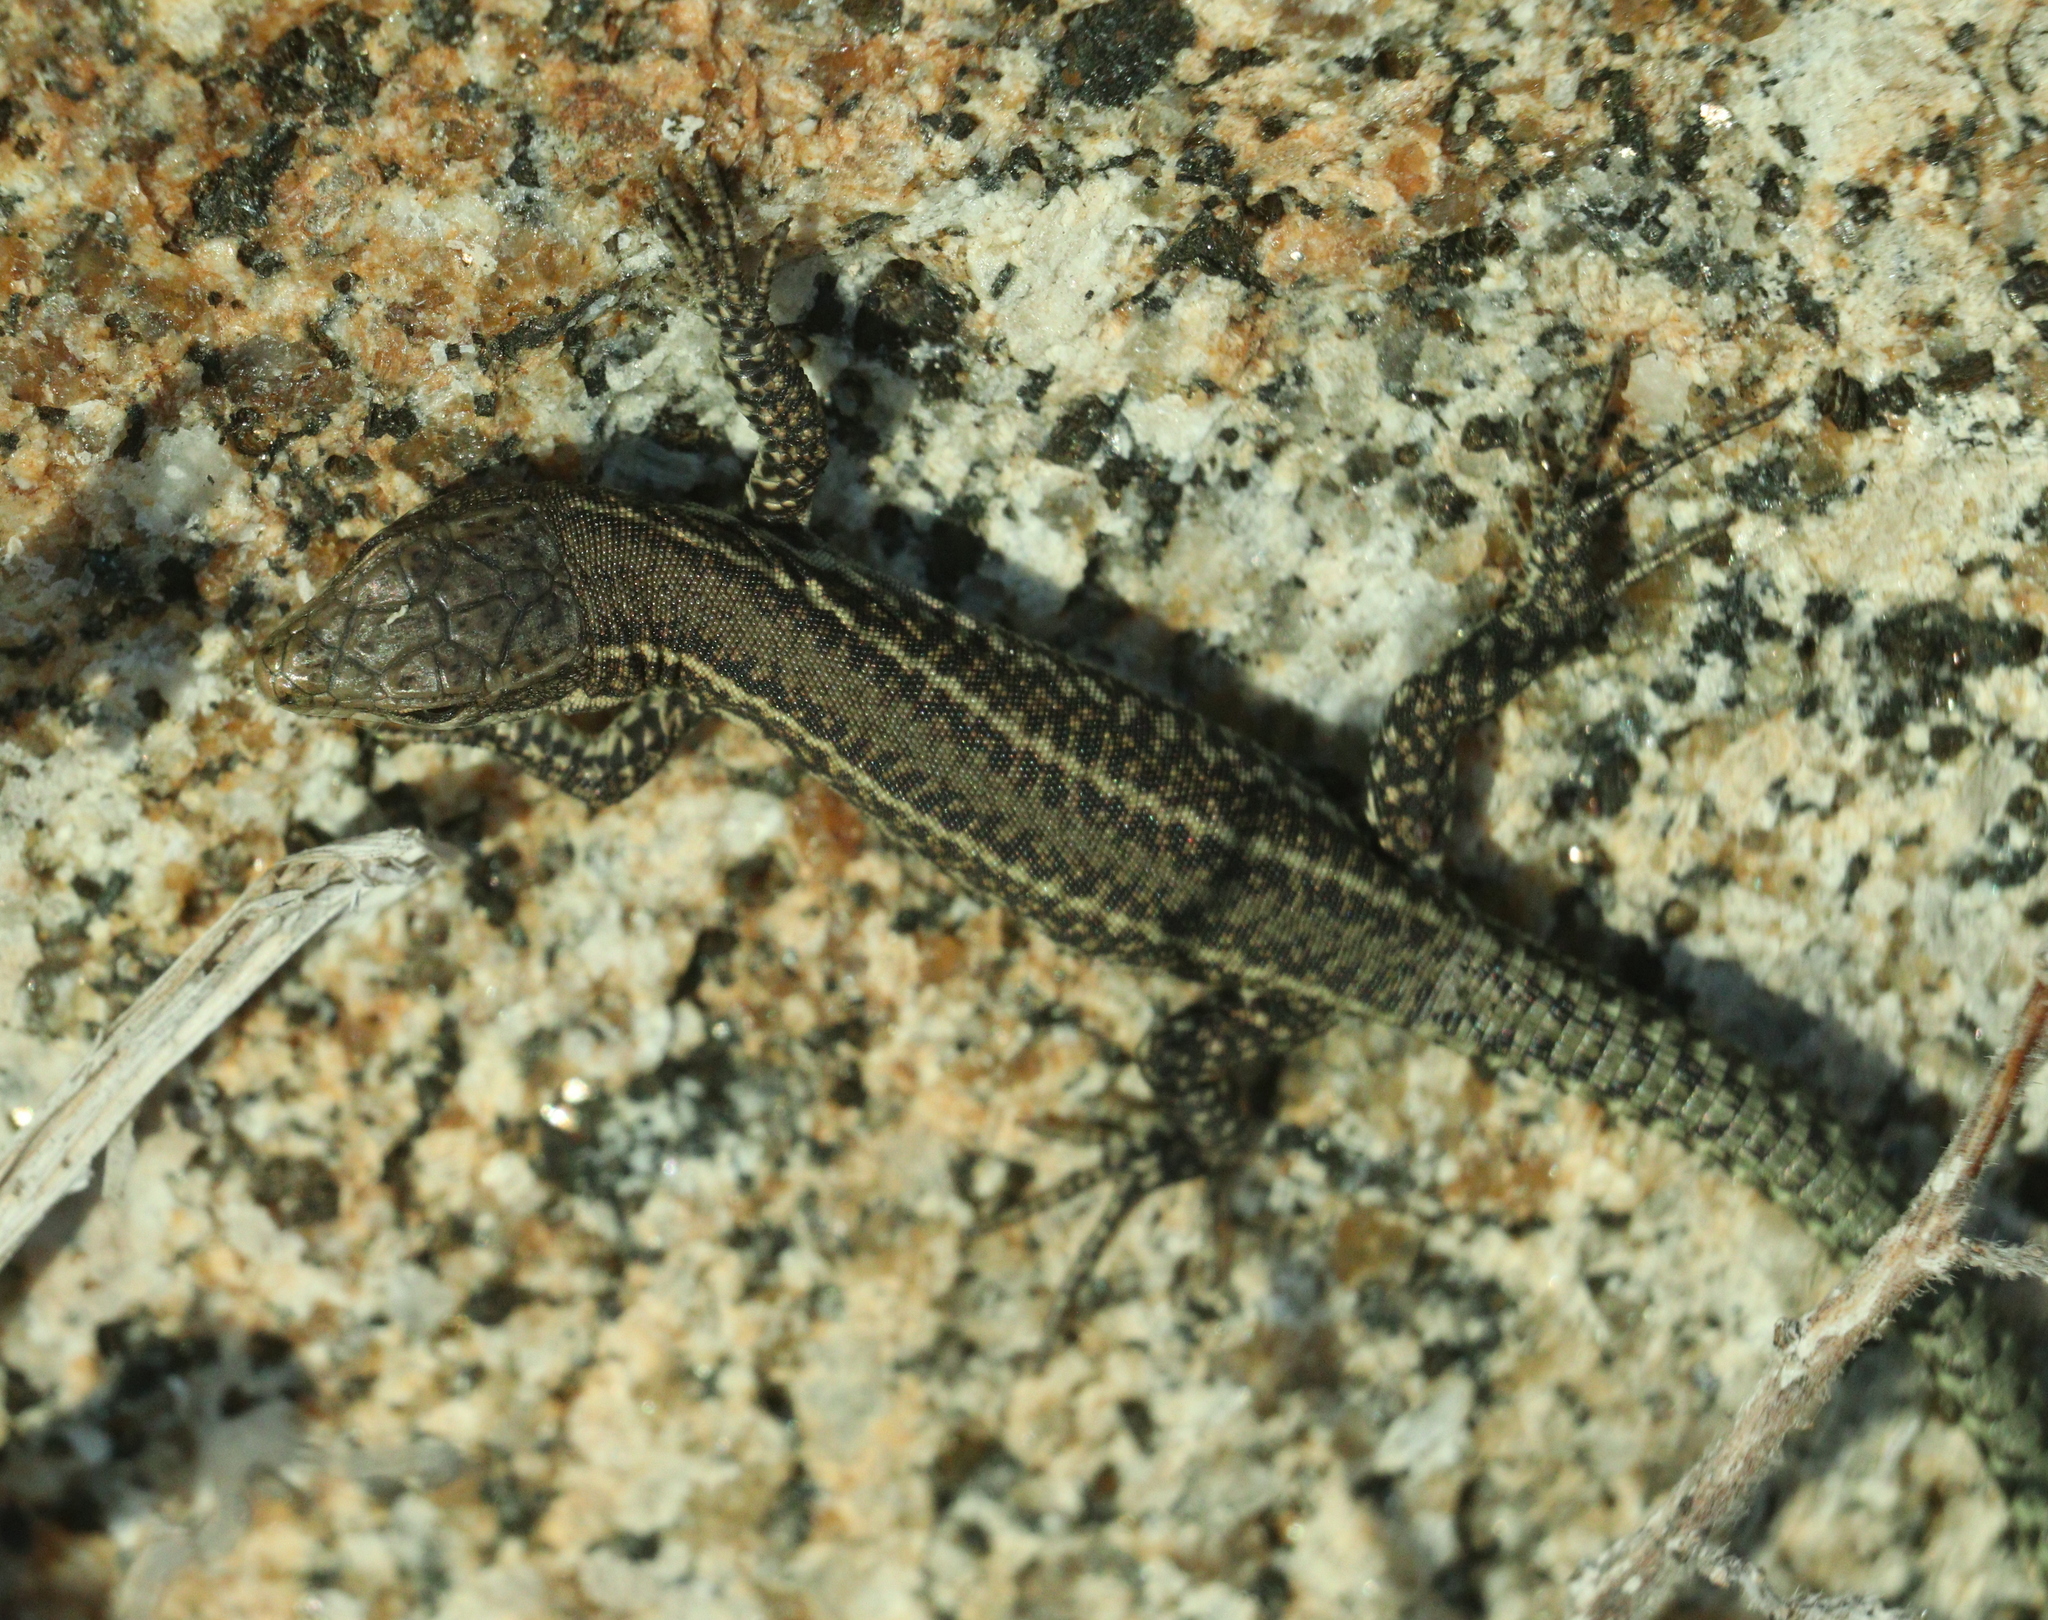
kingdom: Animalia
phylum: Chordata
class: Squamata
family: Lacertidae
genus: Podarcis
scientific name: Podarcis bocagei
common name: Bocage's wall lizard
